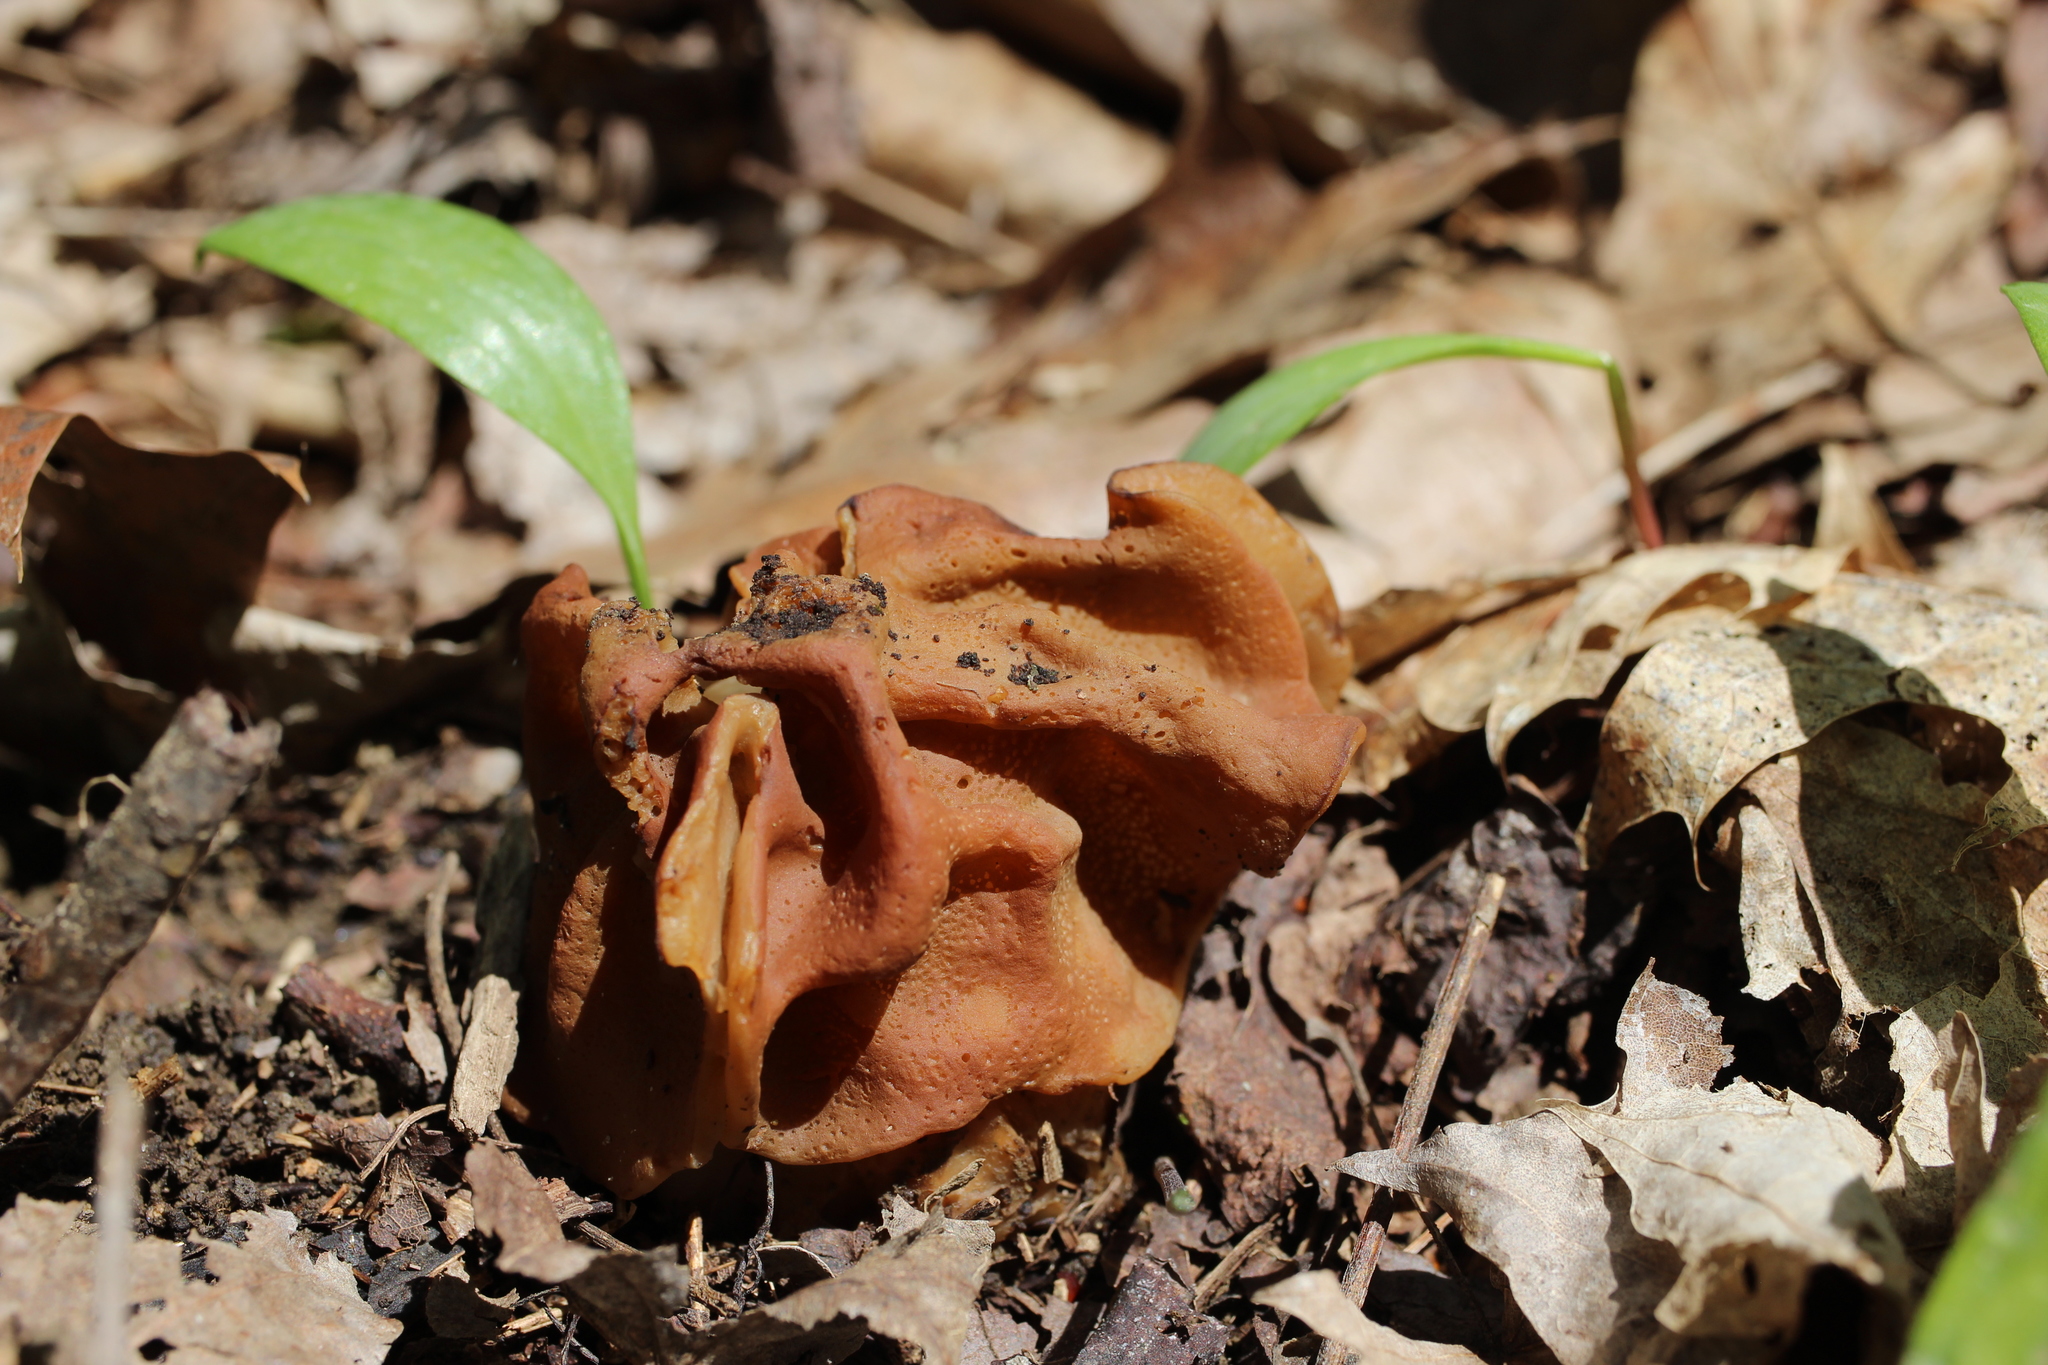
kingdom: Fungi
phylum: Ascomycota
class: Pezizomycetes
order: Pezizales
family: Discinaceae
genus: Gyromitra
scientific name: Gyromitra korfii
